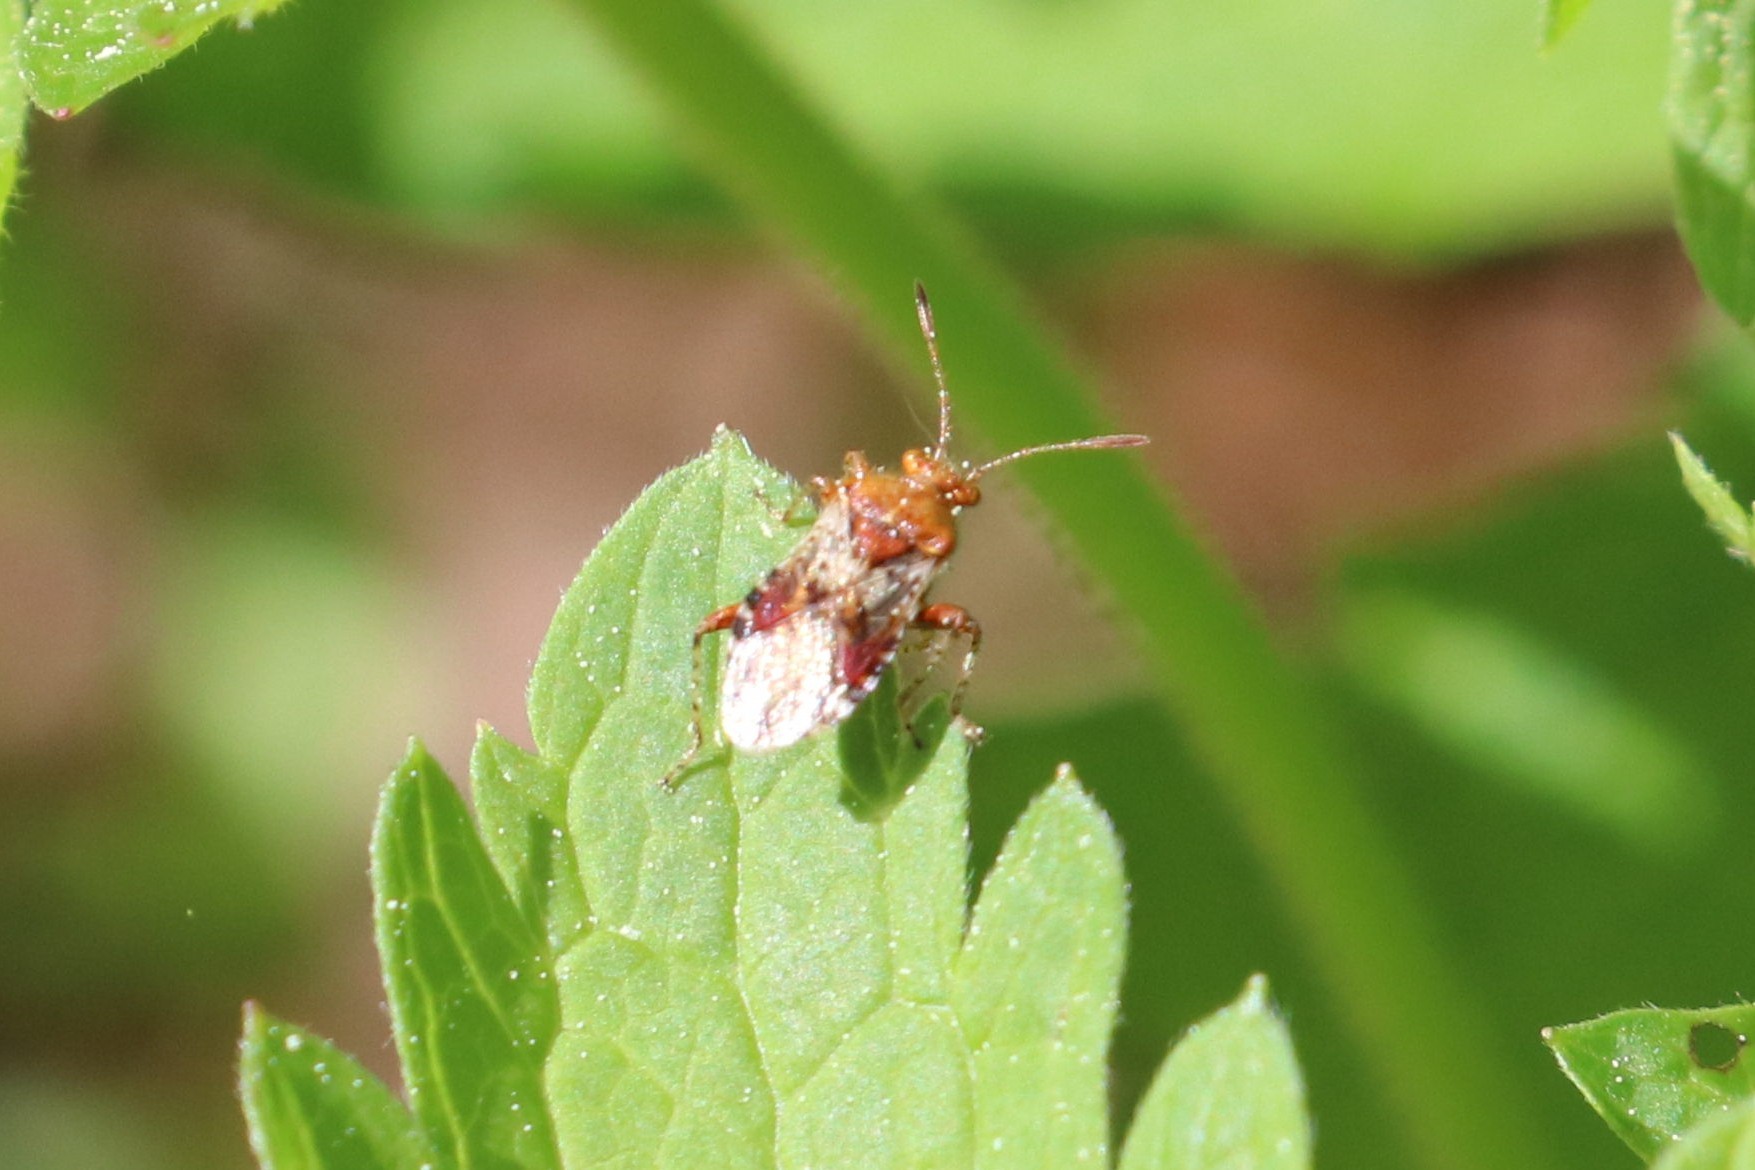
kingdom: Animalia
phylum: Arthropoda
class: Insecta
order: Hemiptera
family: Rhopalidae
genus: Rhopalus
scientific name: Rhopalus subrufus
